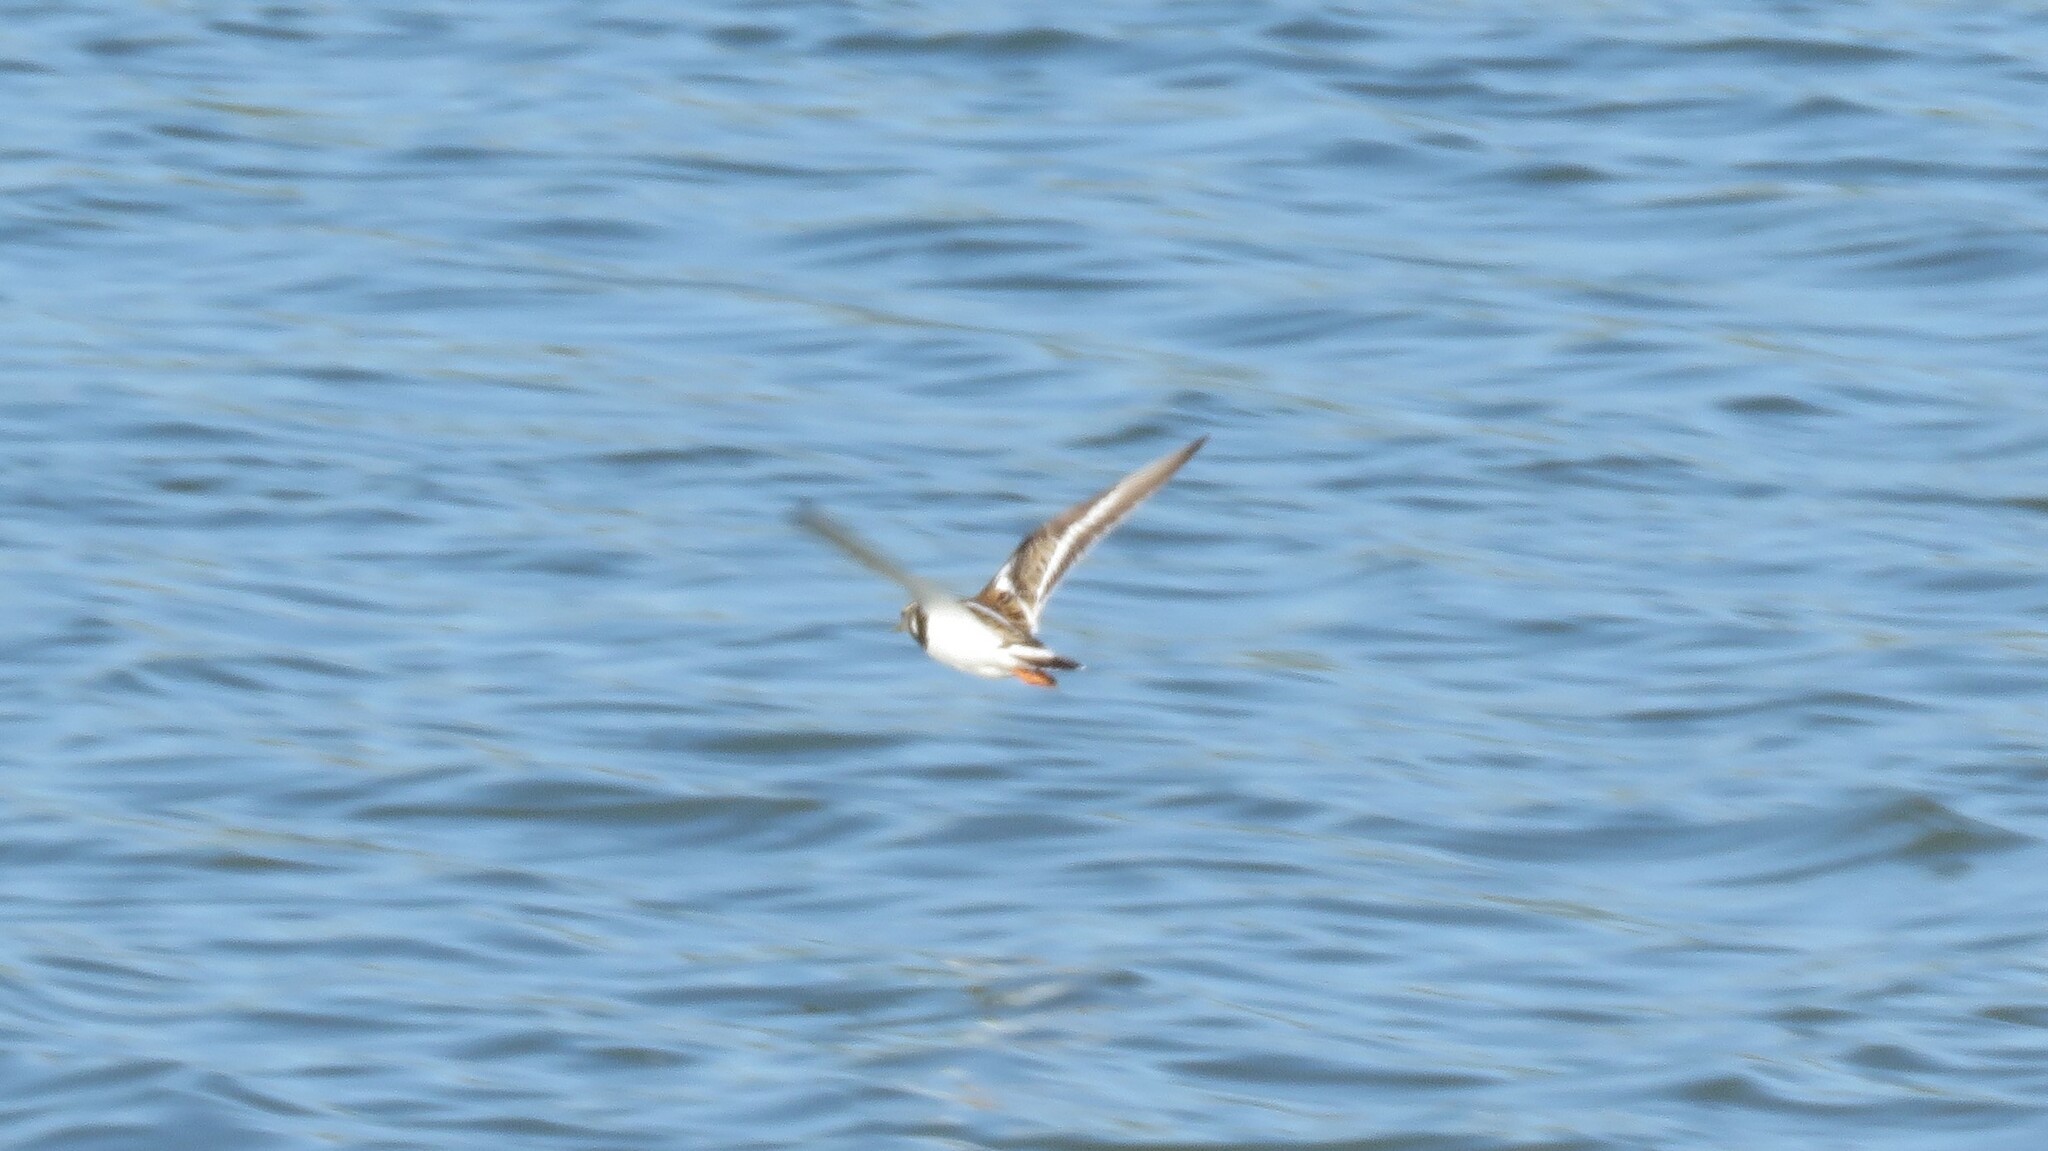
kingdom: Animalia
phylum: Chordata
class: Aves
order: Charadriiformes
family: Scolopacidae
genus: Arenaria
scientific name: Arenaria interpres
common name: Ruddy turnstone
